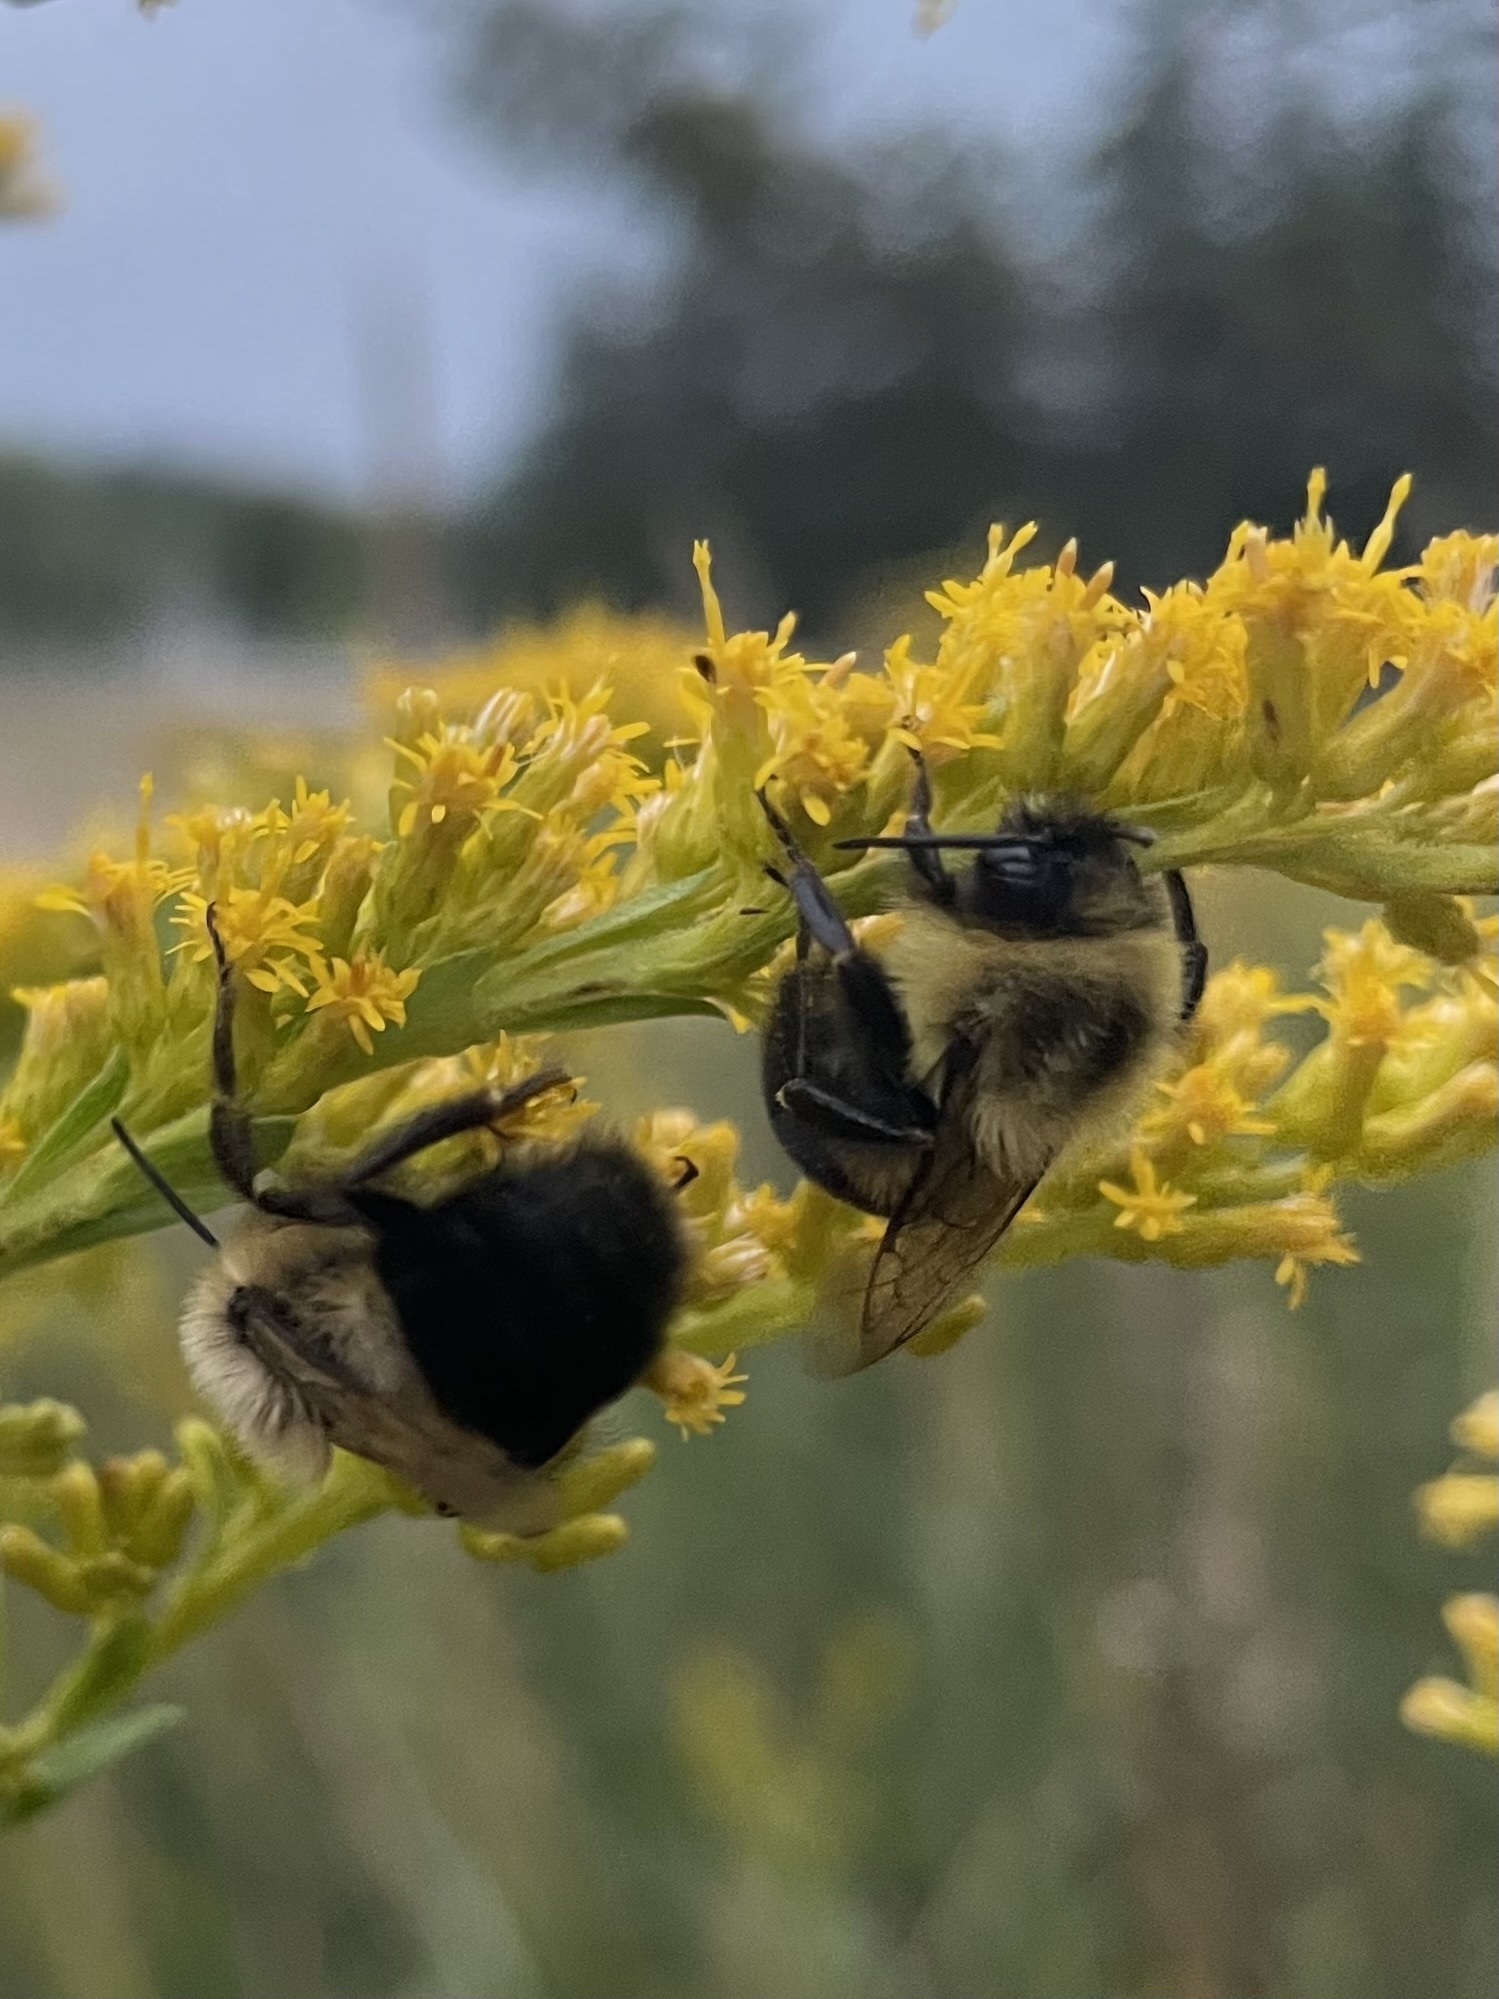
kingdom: Animalia
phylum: Arthropoda
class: Insecta
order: Hymenoptera
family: Apidae
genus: Bombus
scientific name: Bombus impatiens
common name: Common eastern bumble bee
